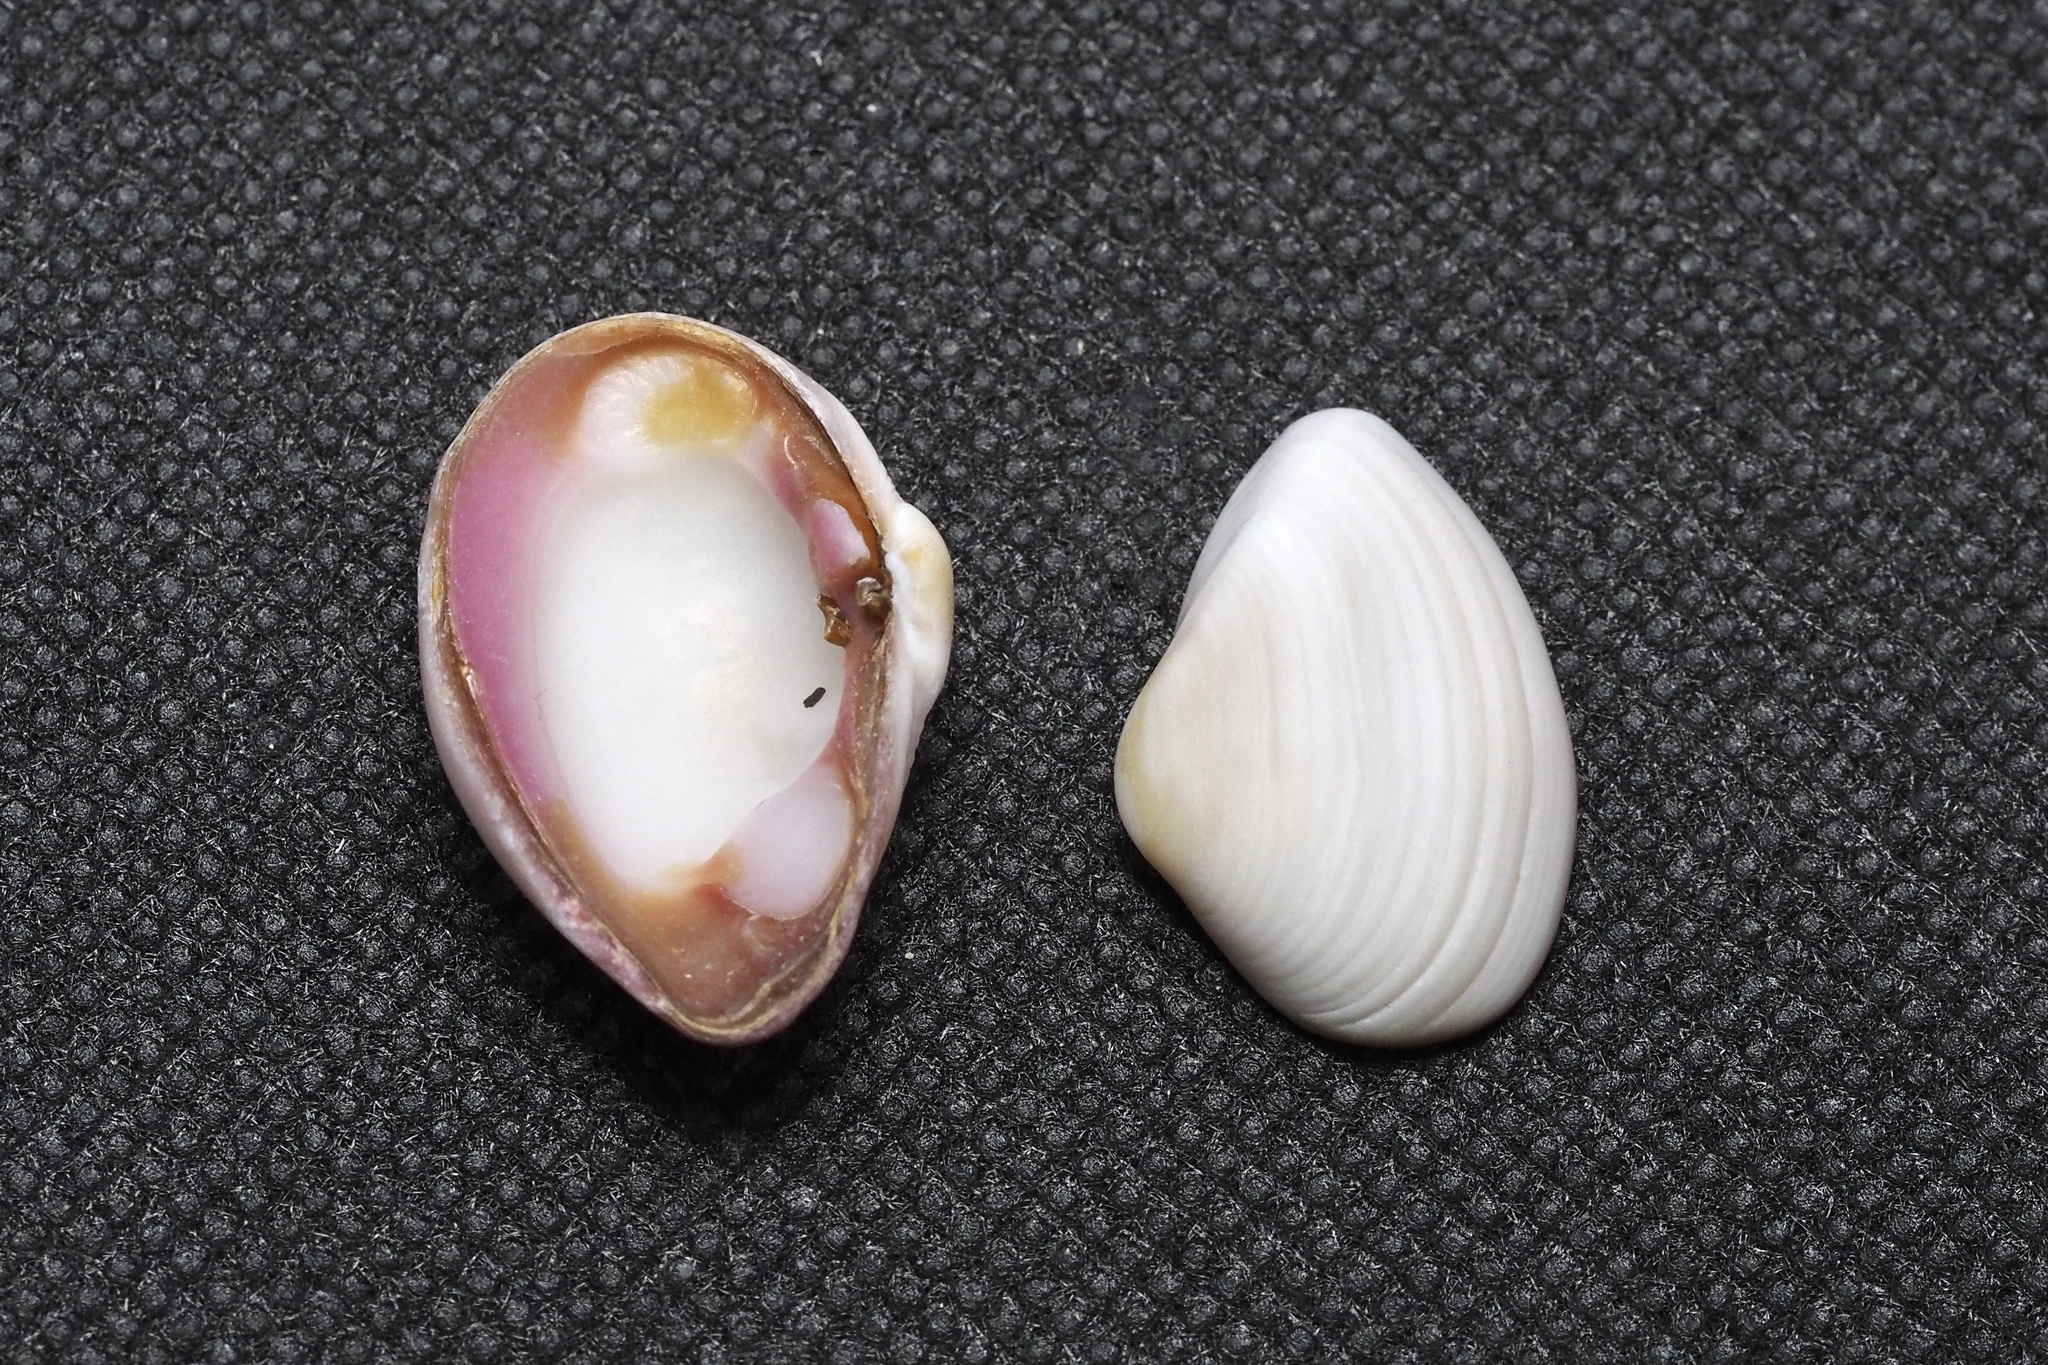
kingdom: Animalia
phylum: Mollusca
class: Bivalvia
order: Myida
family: Corbulidae
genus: Corbula
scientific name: Corbula erythrodon
